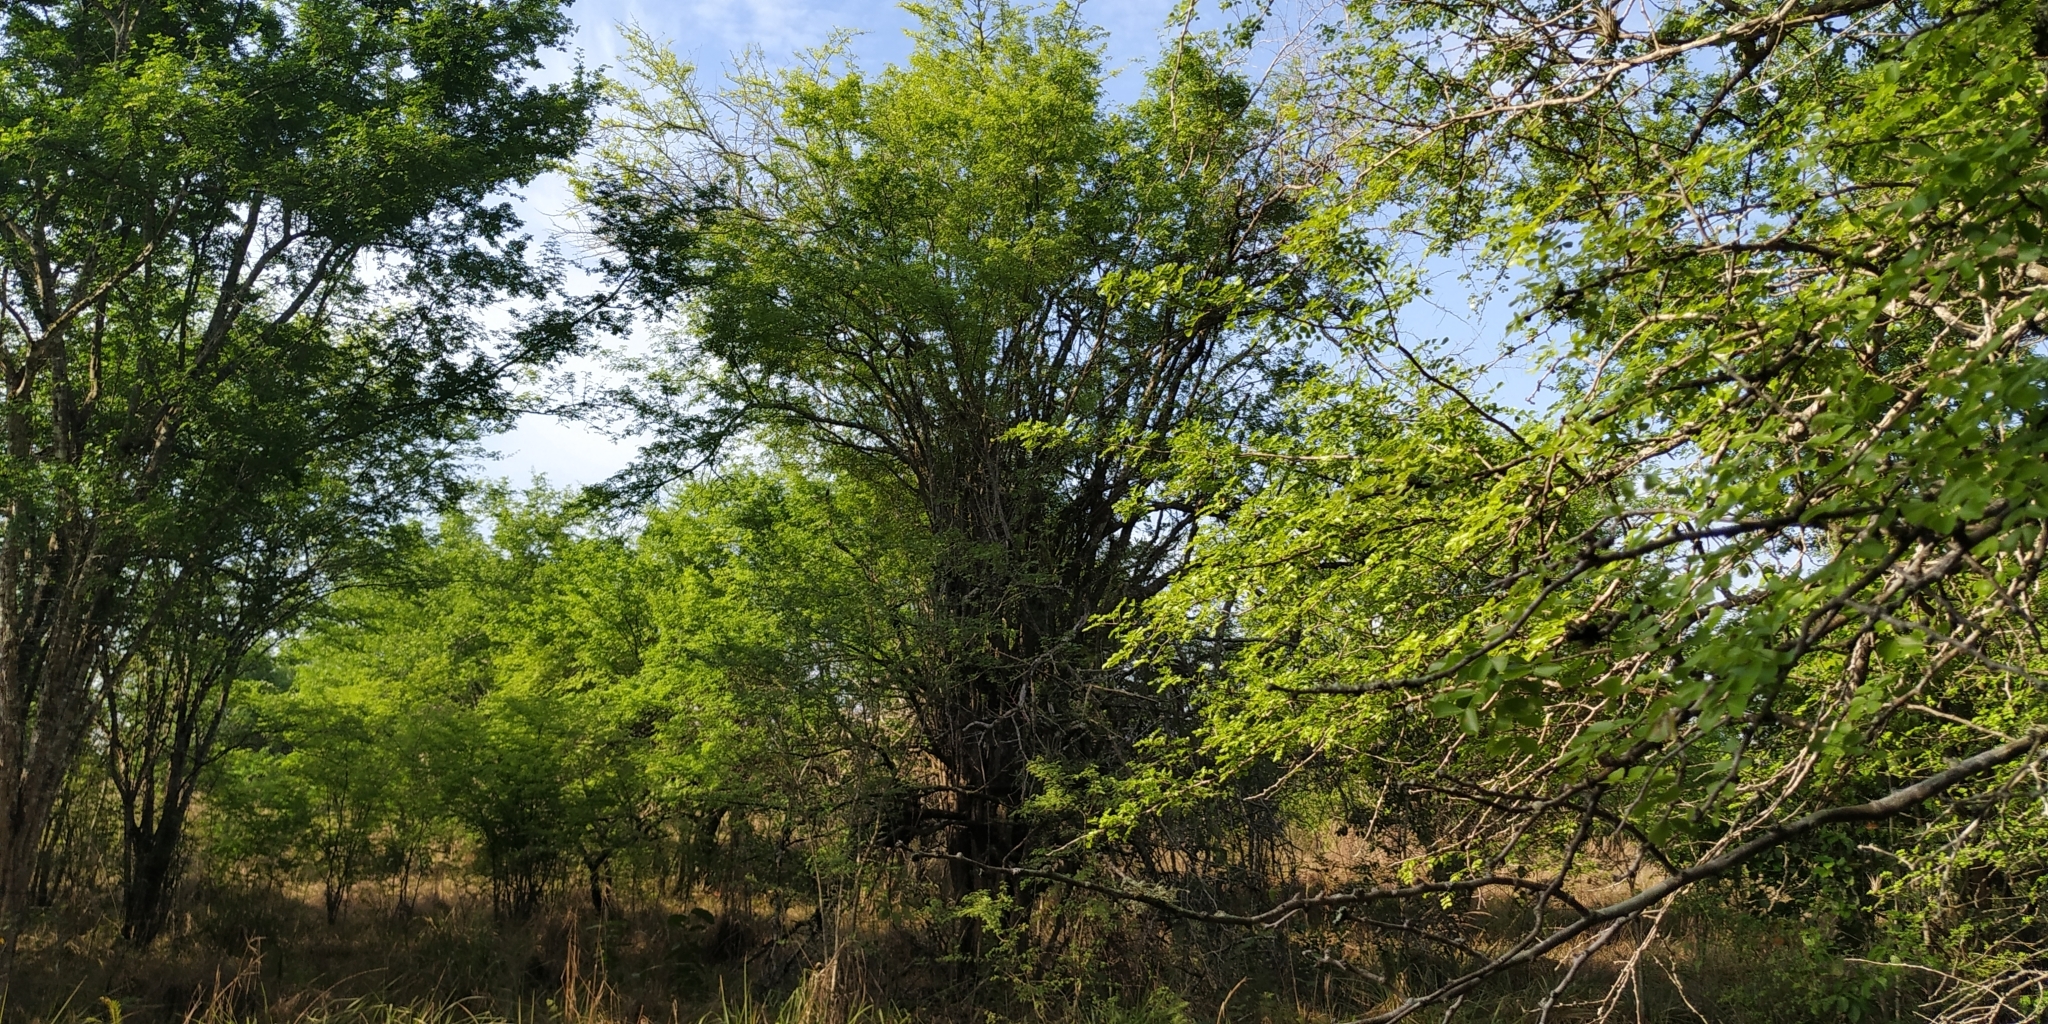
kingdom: Plantae
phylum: Tracheophyta
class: Magnoliopsida
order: Fabales
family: Fabaceae
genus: Haematoxylum
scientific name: Haematoxylum campechianum
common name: Logwood
